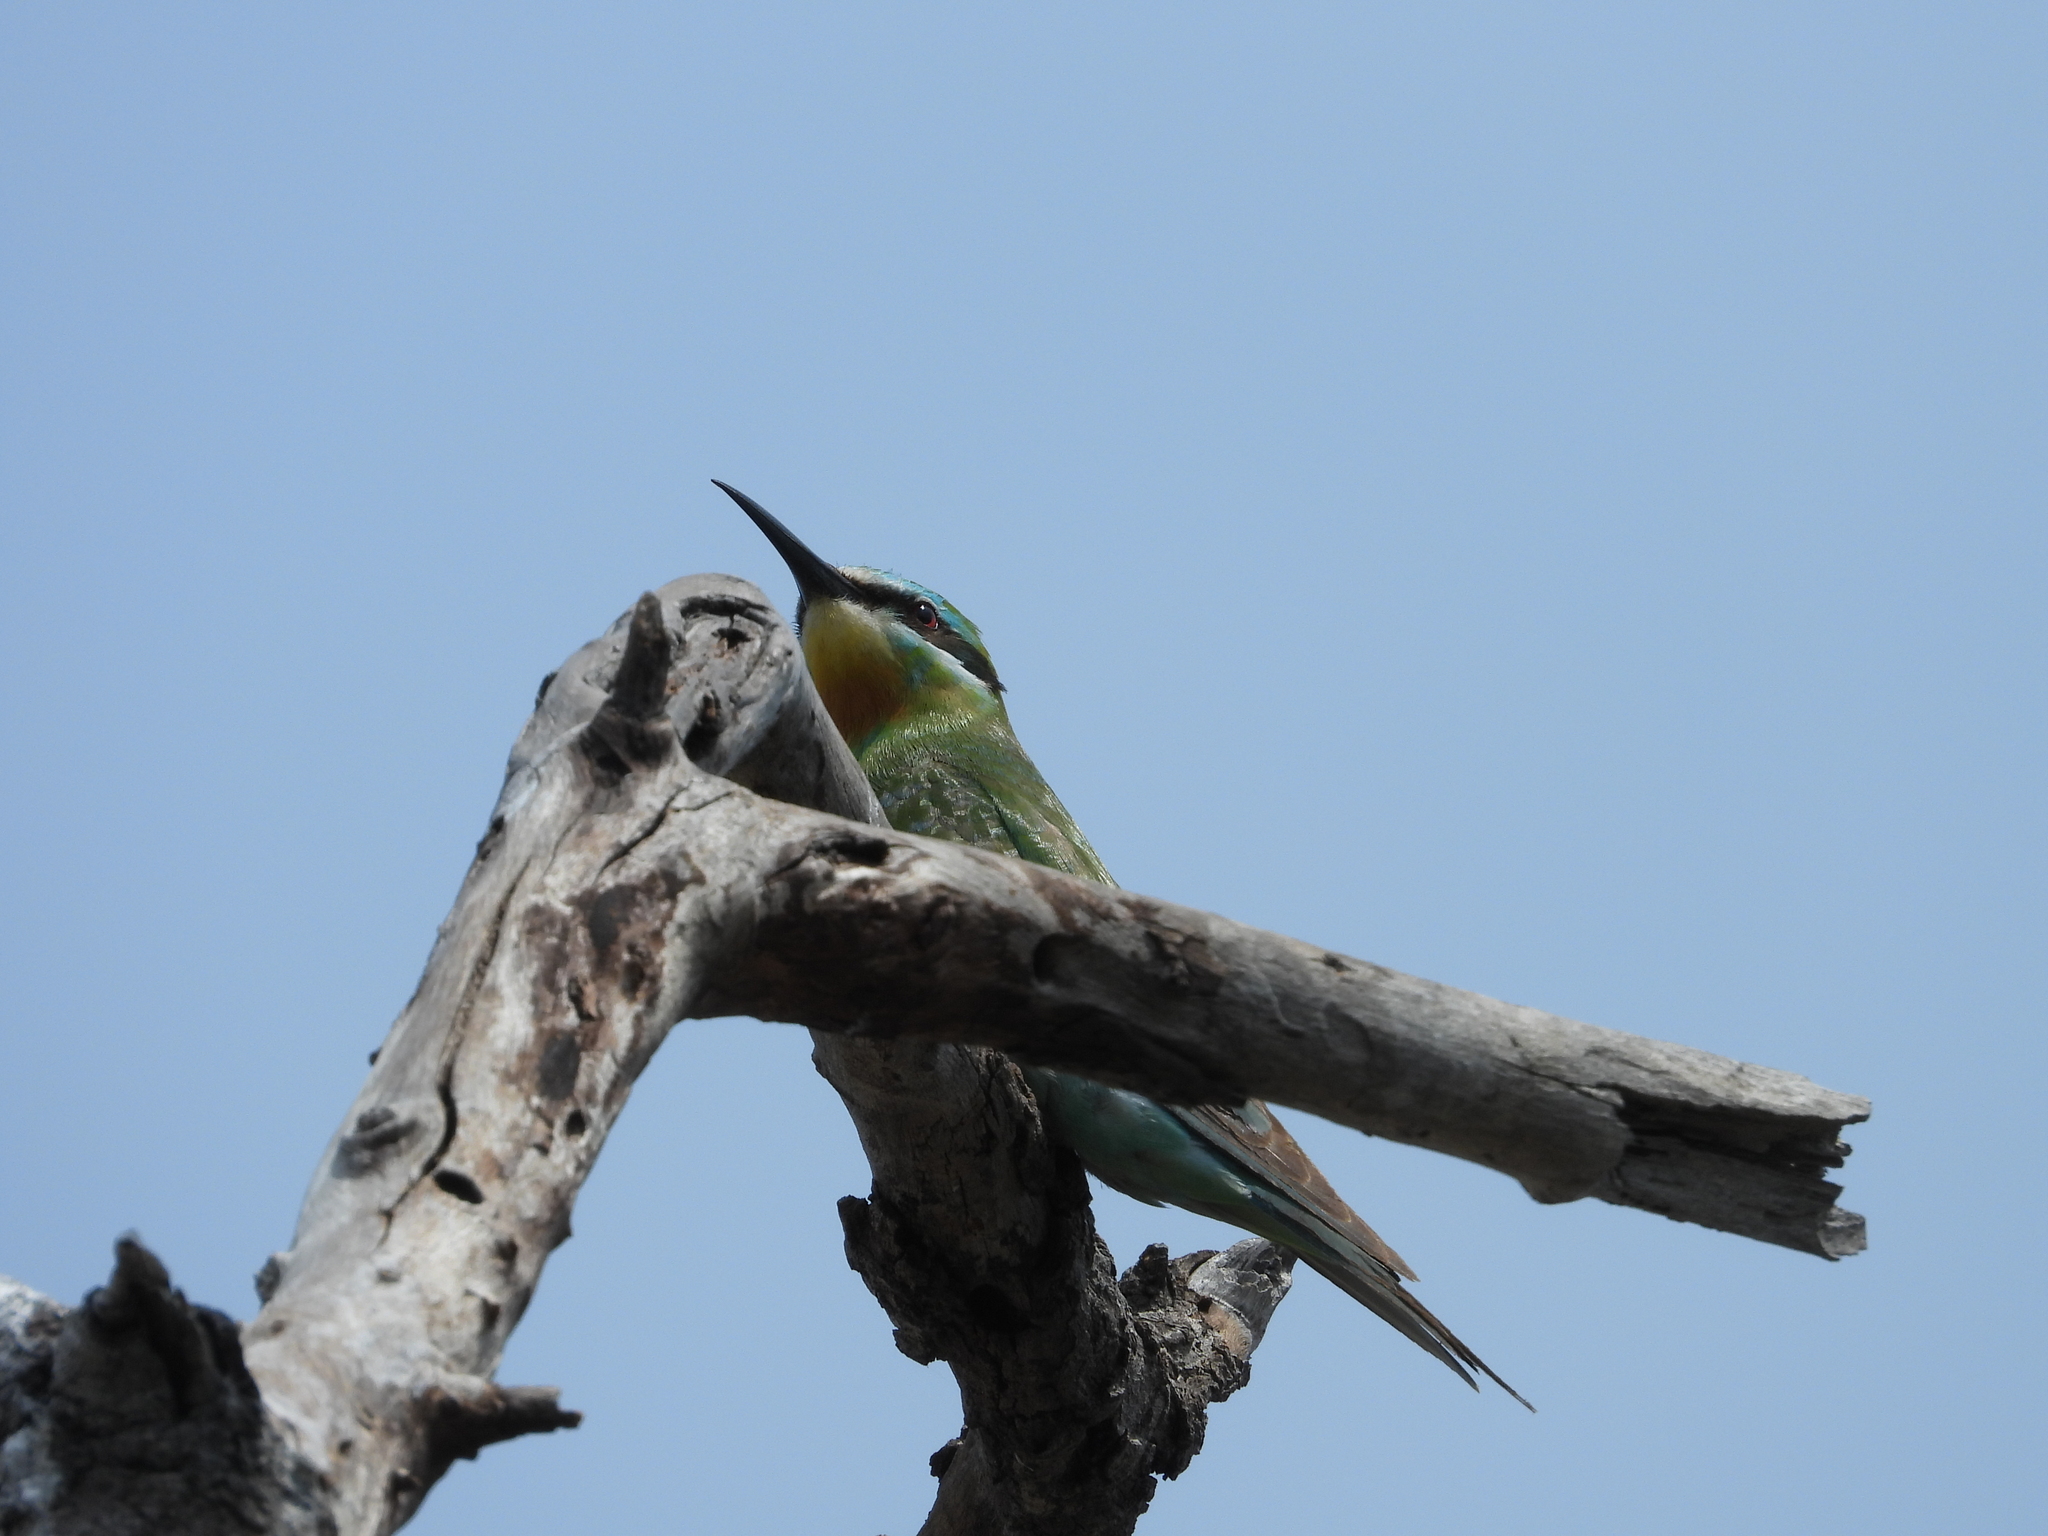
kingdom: Animalia
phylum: Chordata
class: Aves
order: Coraciiformes
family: Meropidae
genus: Merops
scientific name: Merops persicus
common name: Blue-cheeked bee-eater
